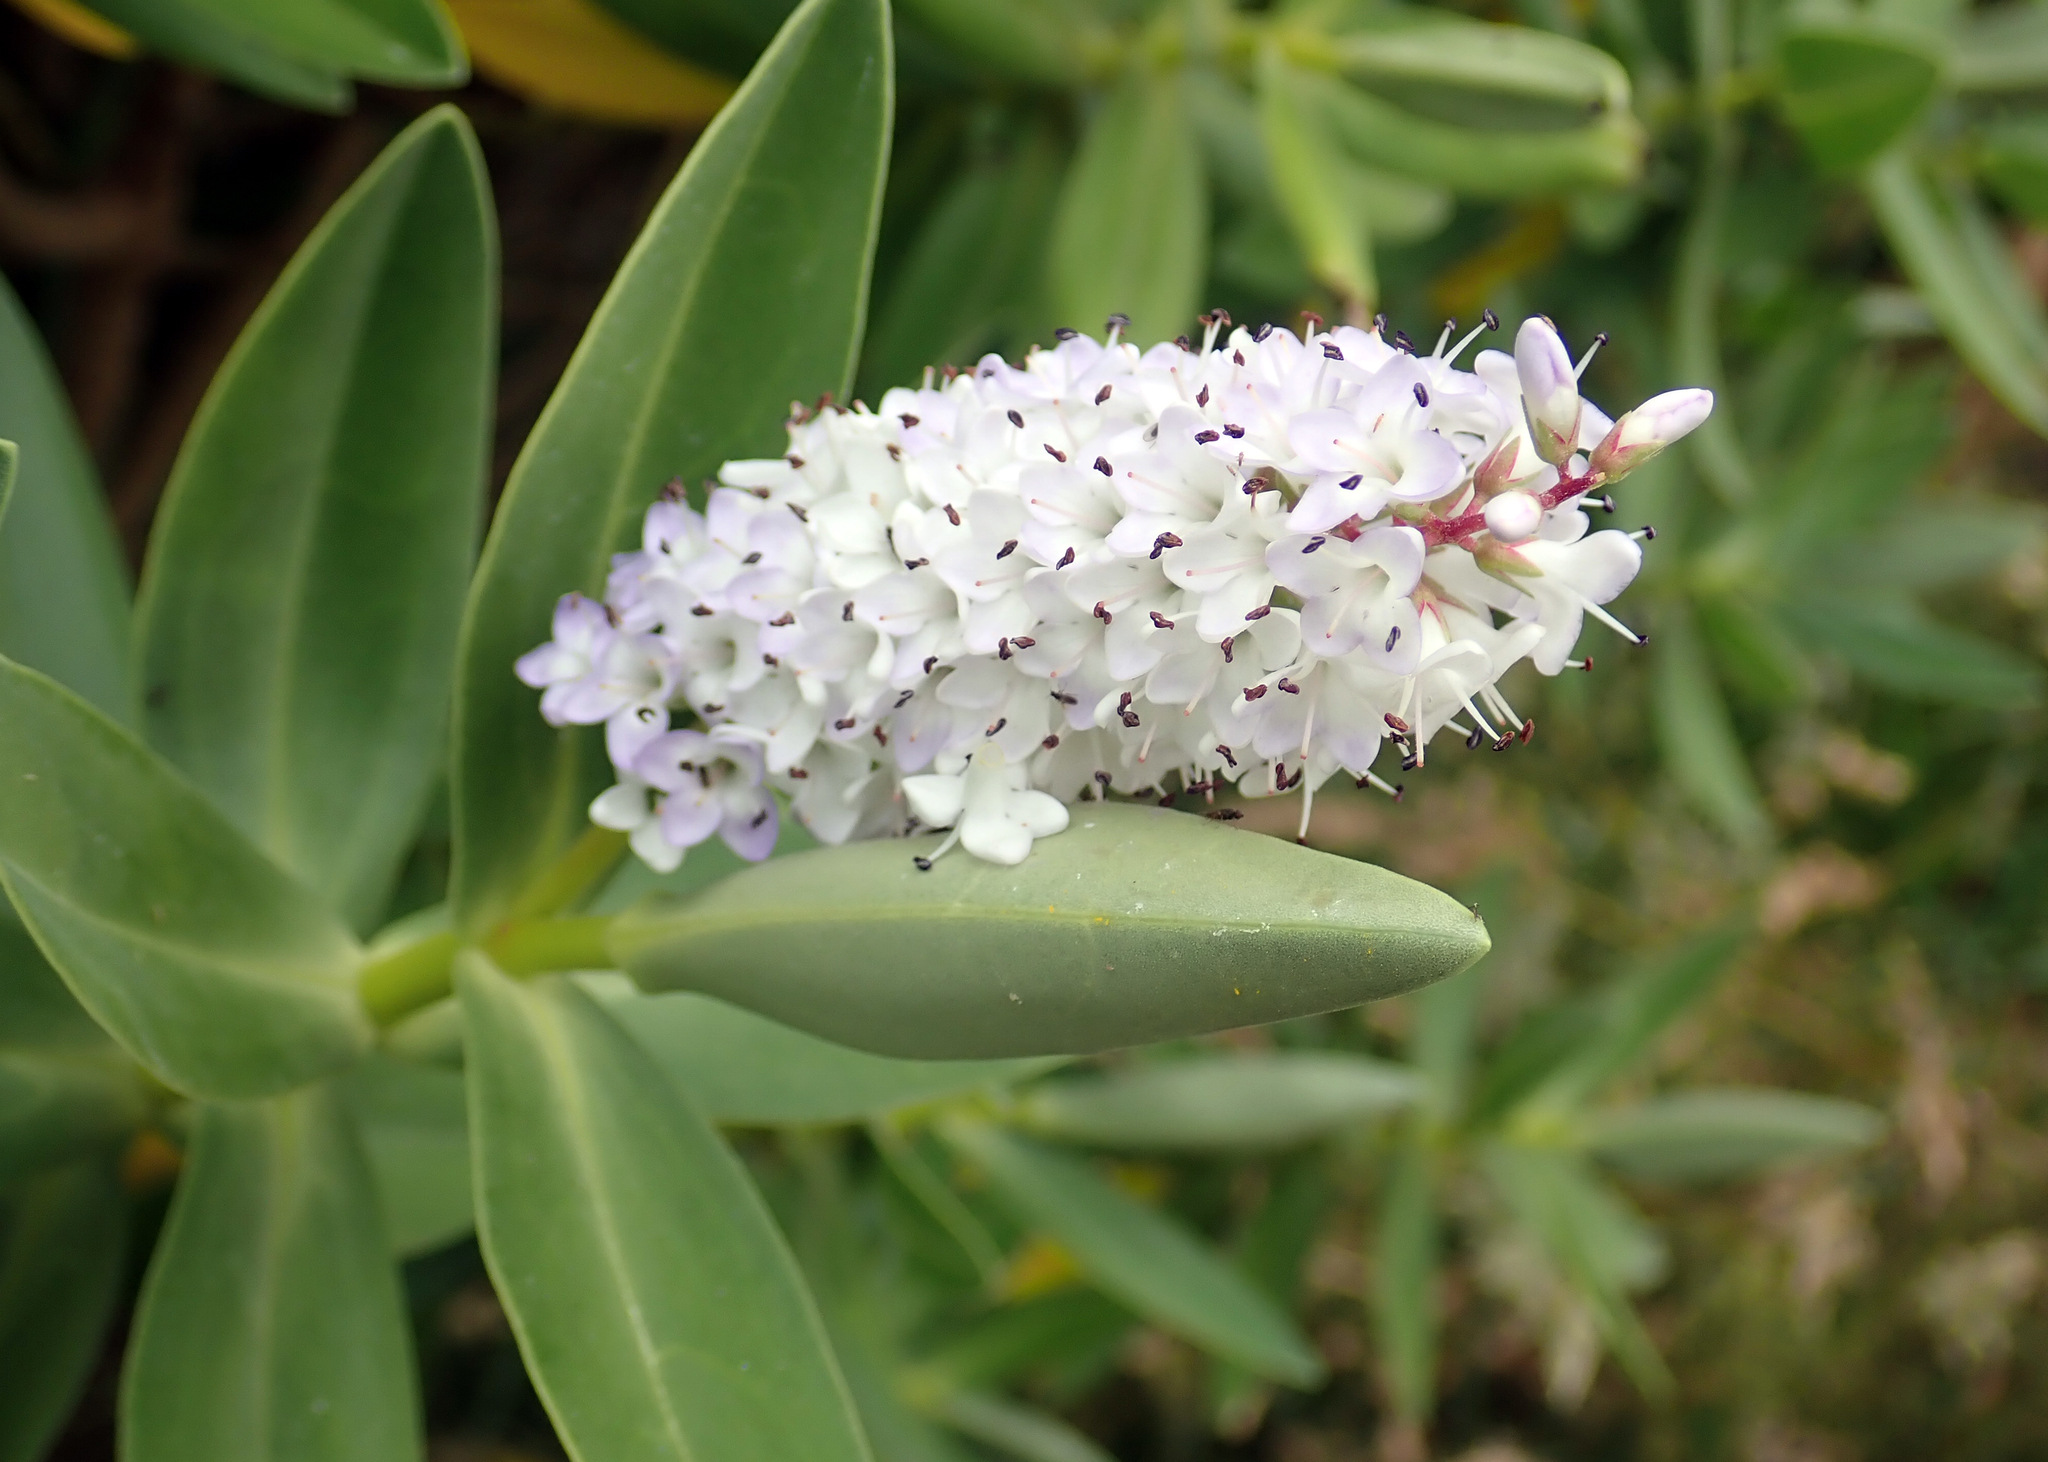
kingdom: Plantae
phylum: Tracheophyta
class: Magnoliopsida
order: Lamiales
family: Plantaginaceae
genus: Veronica
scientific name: Veronica dieffenbachii
